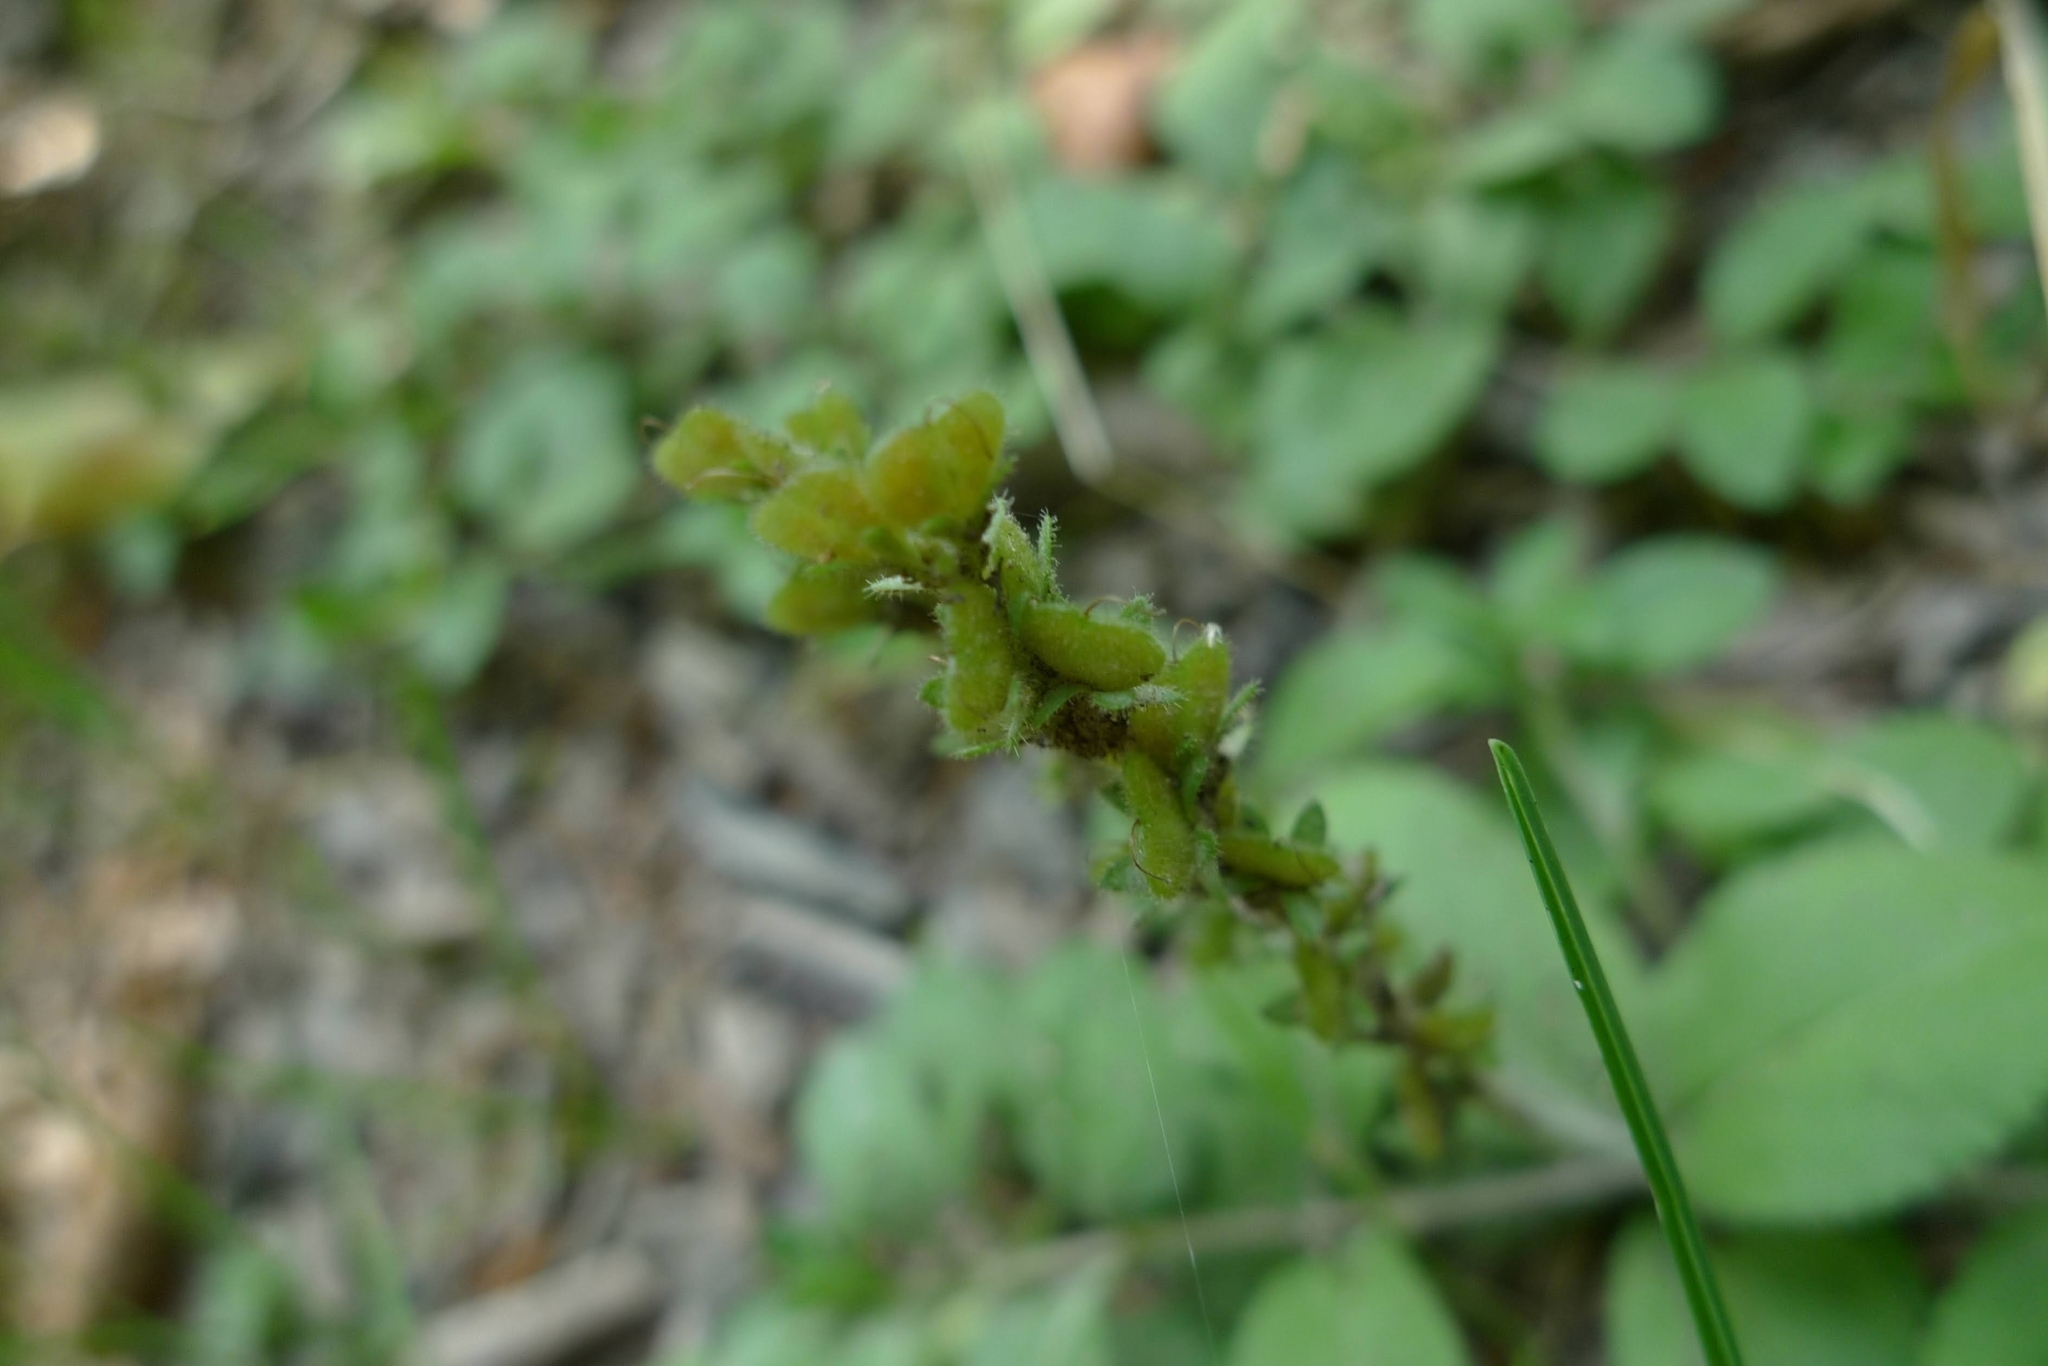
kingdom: Plantae
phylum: Tracheophyta
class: Magnoliopsida
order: Lamiales
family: Plantaginaceae
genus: Veronica
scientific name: Veronica officinalis
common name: Common speedwell
